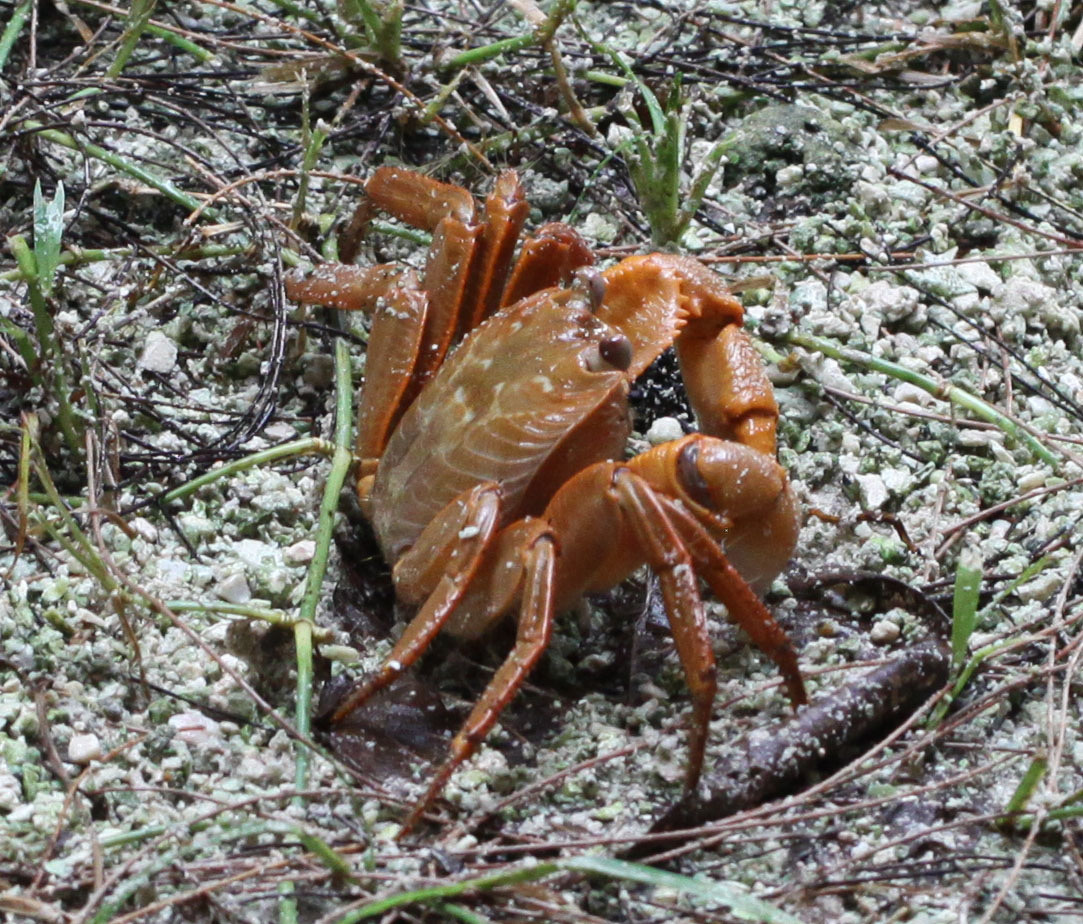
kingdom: Animalia
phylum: Arthropoda
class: Malacostraca
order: Decapoda
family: Grapsidae
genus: Geograpsus
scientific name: Geograpsus crinipes
